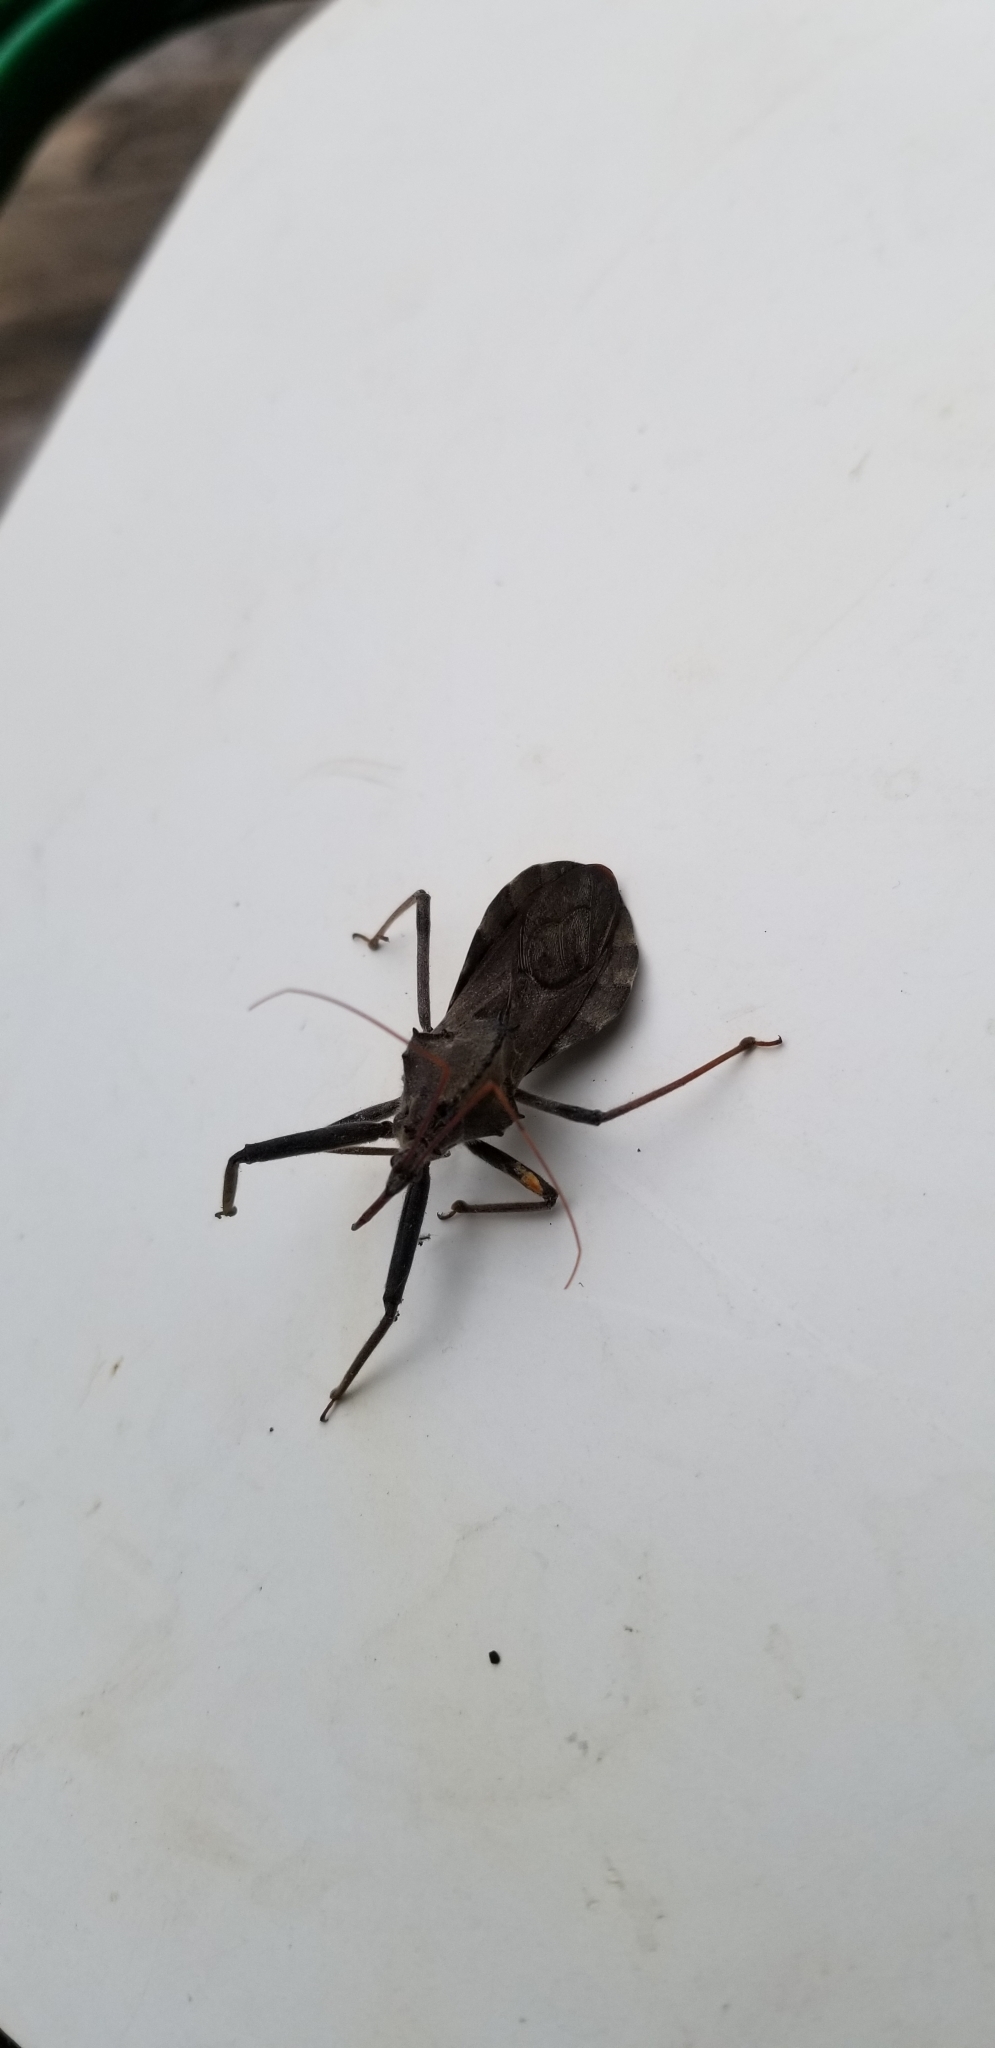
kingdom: Animalia
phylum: Arthropoda
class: Insecta
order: Hemiptera
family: Reduviidae
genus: Arilus
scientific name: Arilus cristatus
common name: North american wheel bug
